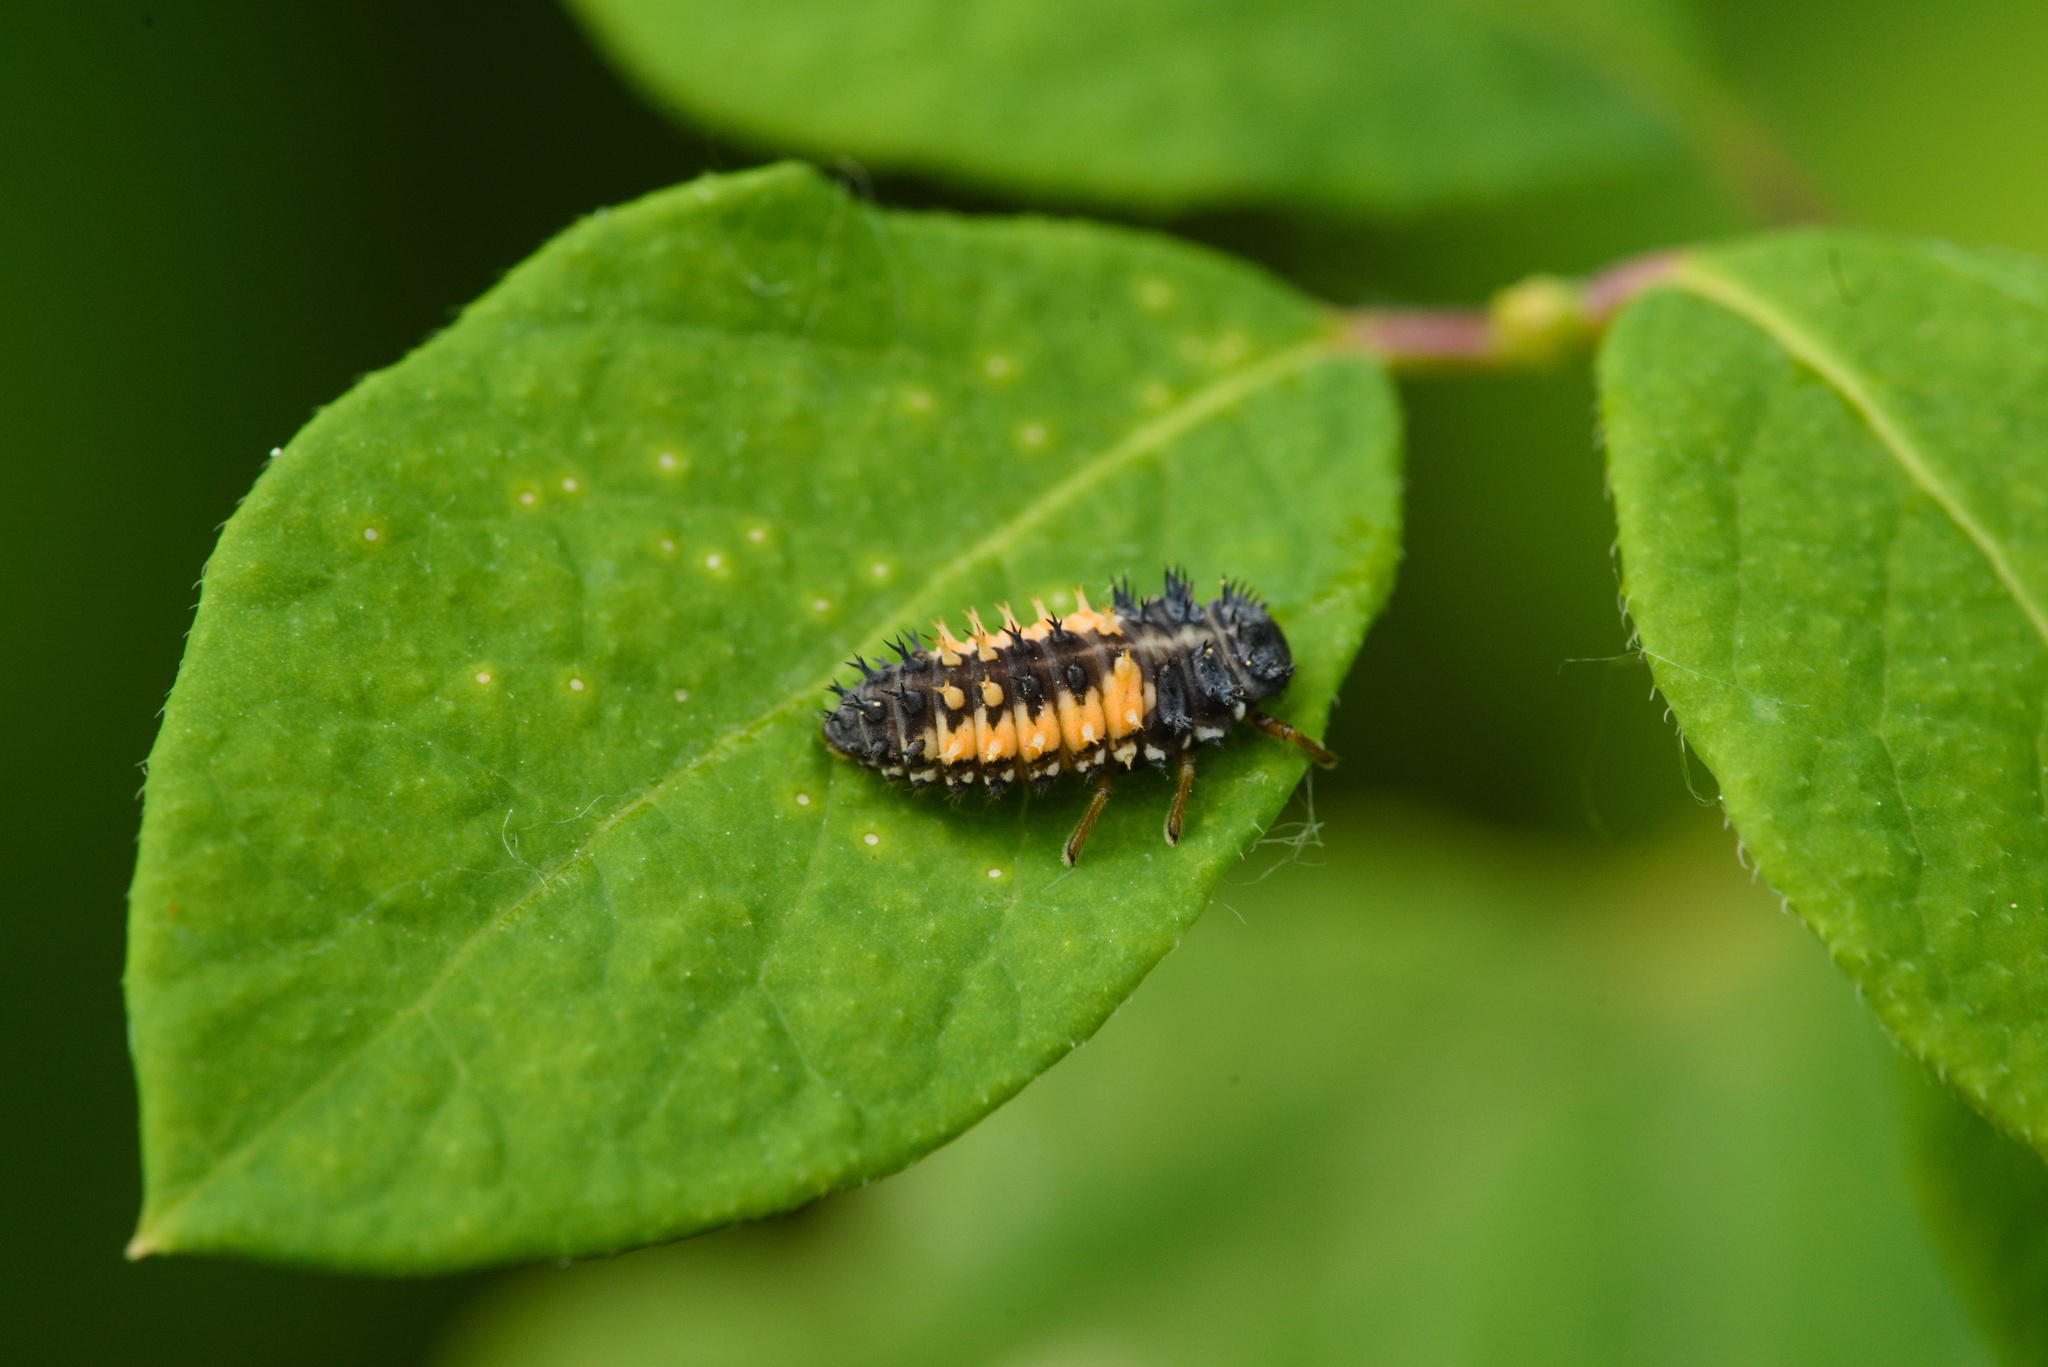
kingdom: Animalia
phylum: Arthropoda
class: Insecta
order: Coleoptera
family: Coccinellidae
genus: Harmonia
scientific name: Harmonia axyridis
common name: Harlequin ladybird
